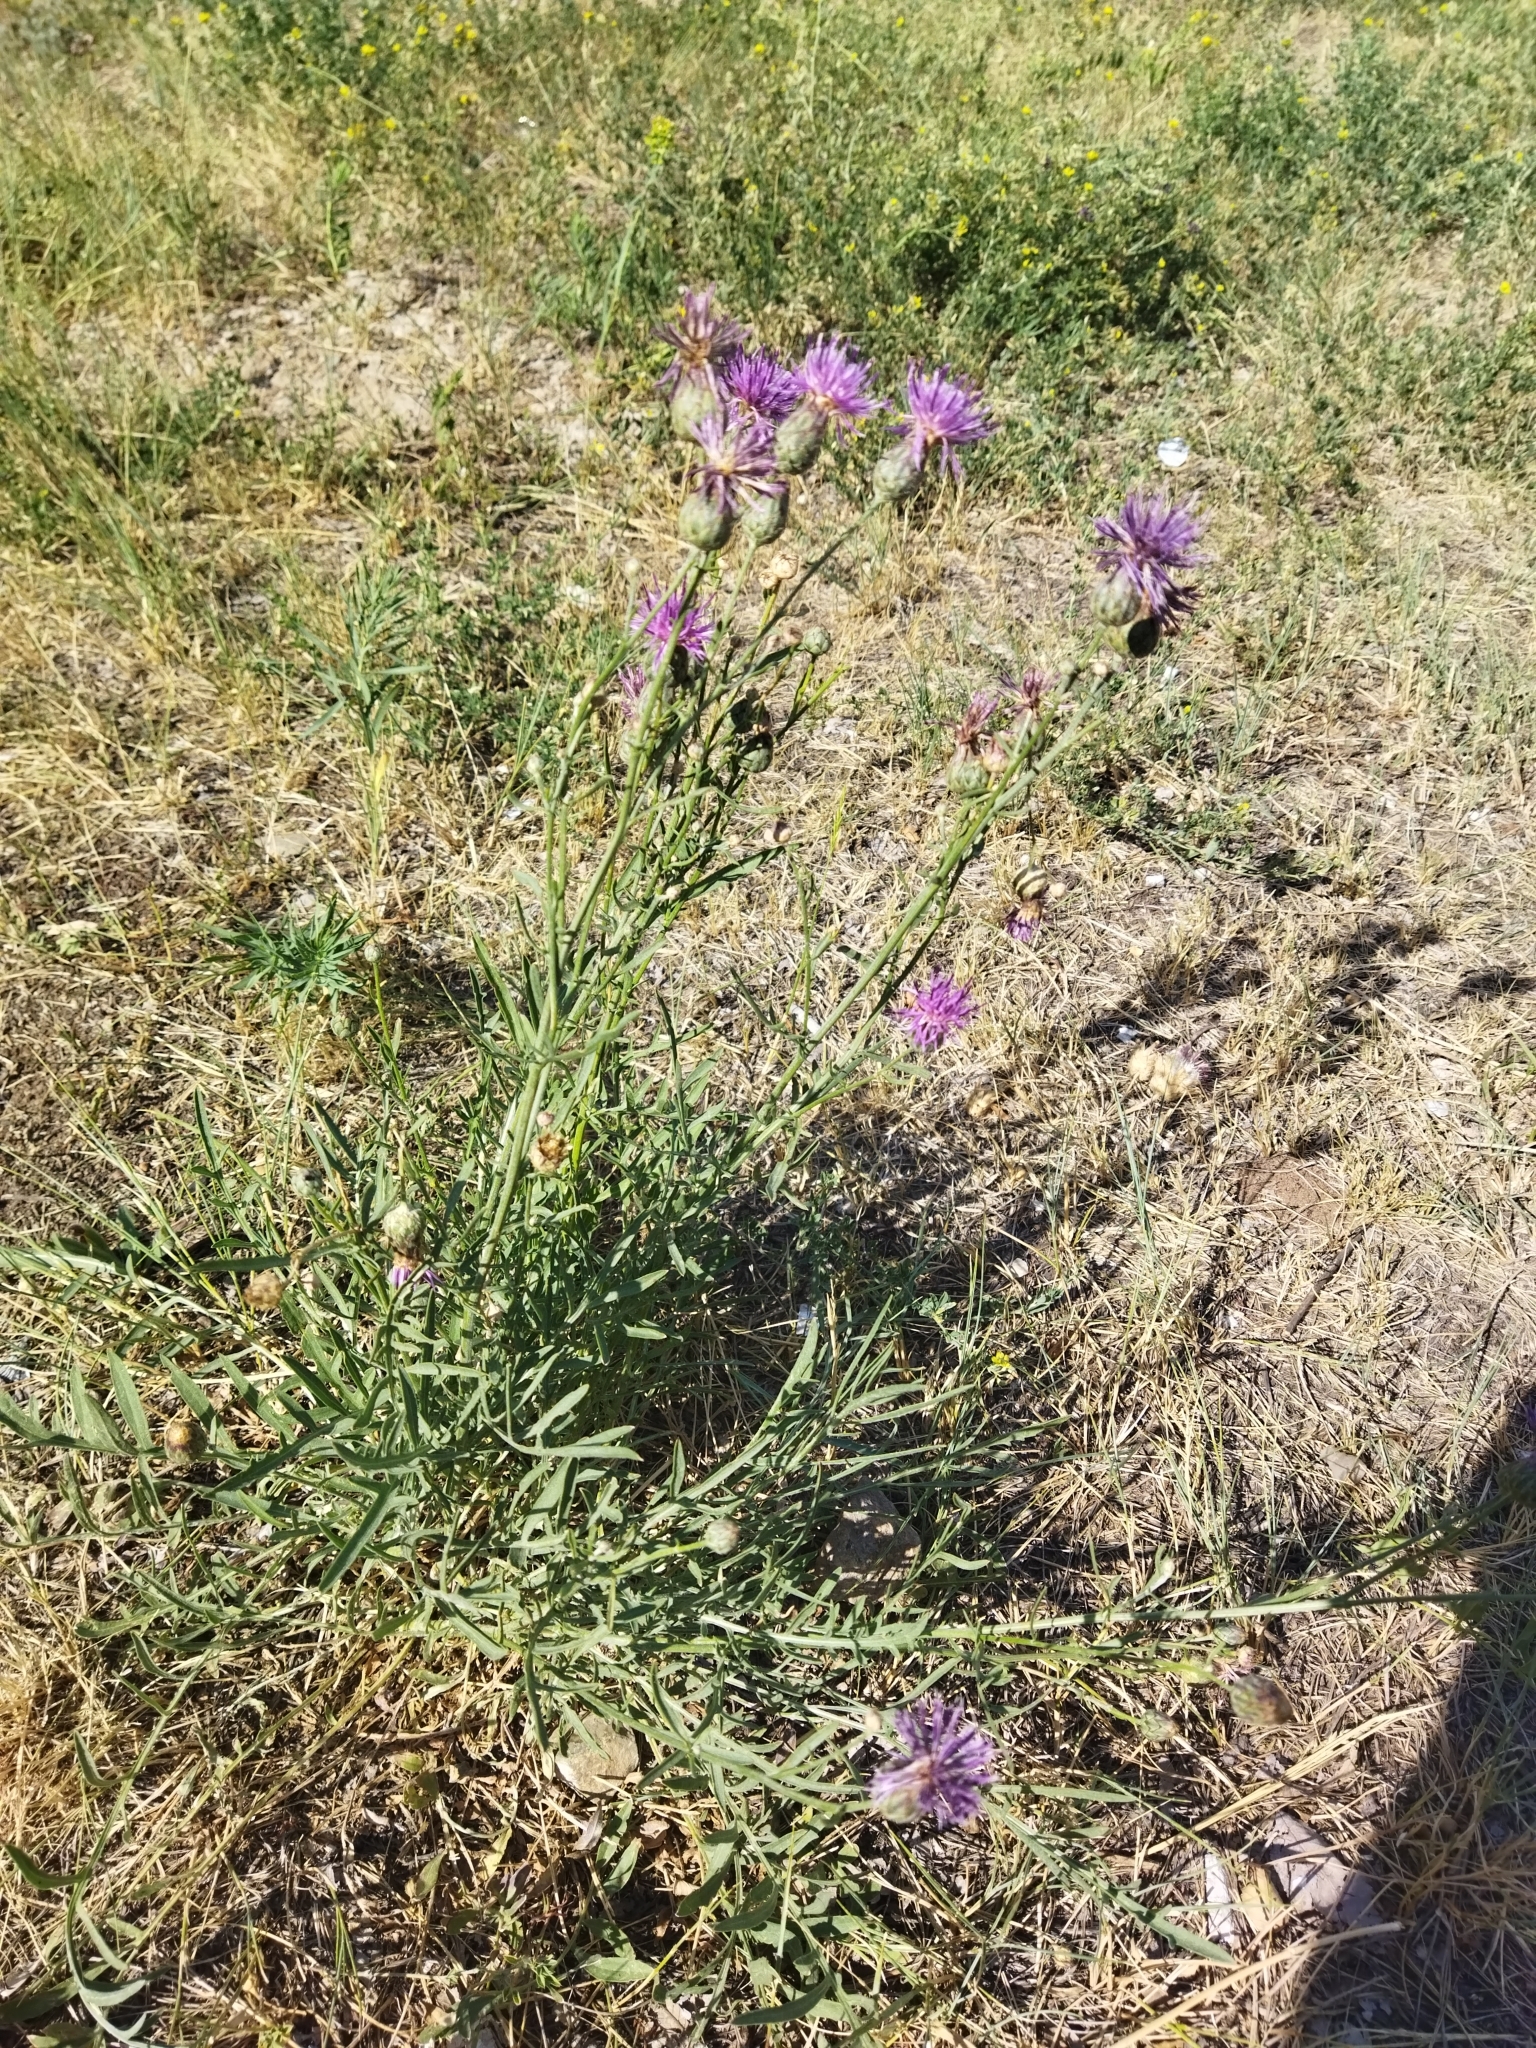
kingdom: Plantae
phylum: Tracheophyta
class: Magnoliopsida
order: Asterales
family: Asteraceae
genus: Centaurea
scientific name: Centaurea scabiosa
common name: Greater knapweed
